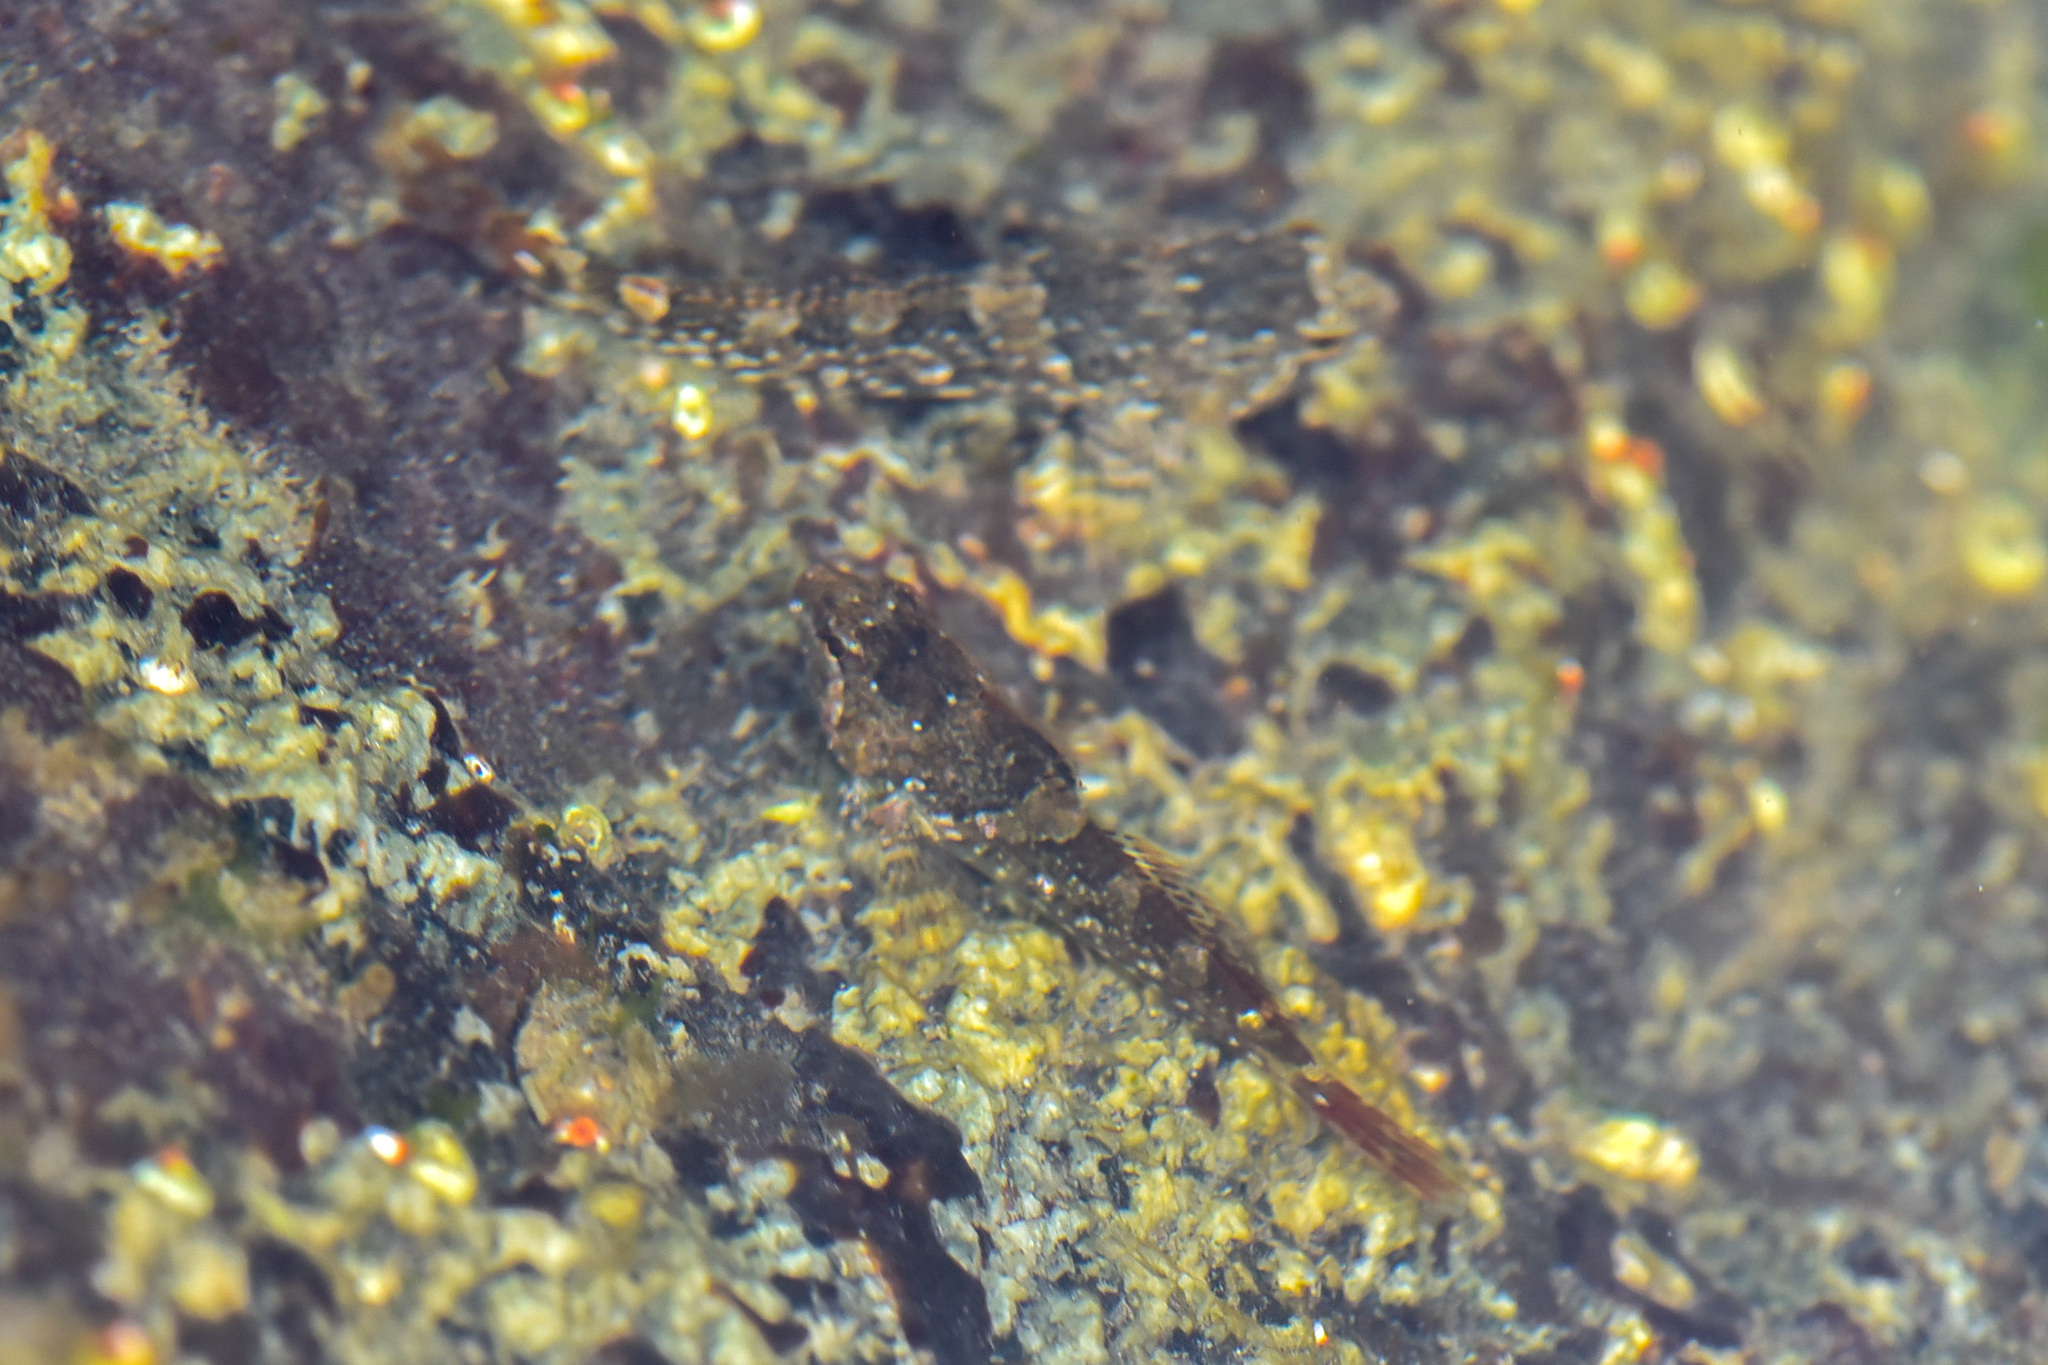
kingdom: Animalia
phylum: Chordata
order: Scorpaeniformes
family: Cottidae
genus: Oligocottus
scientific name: Oligocottus maculosus
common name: Tidepool sculpin
